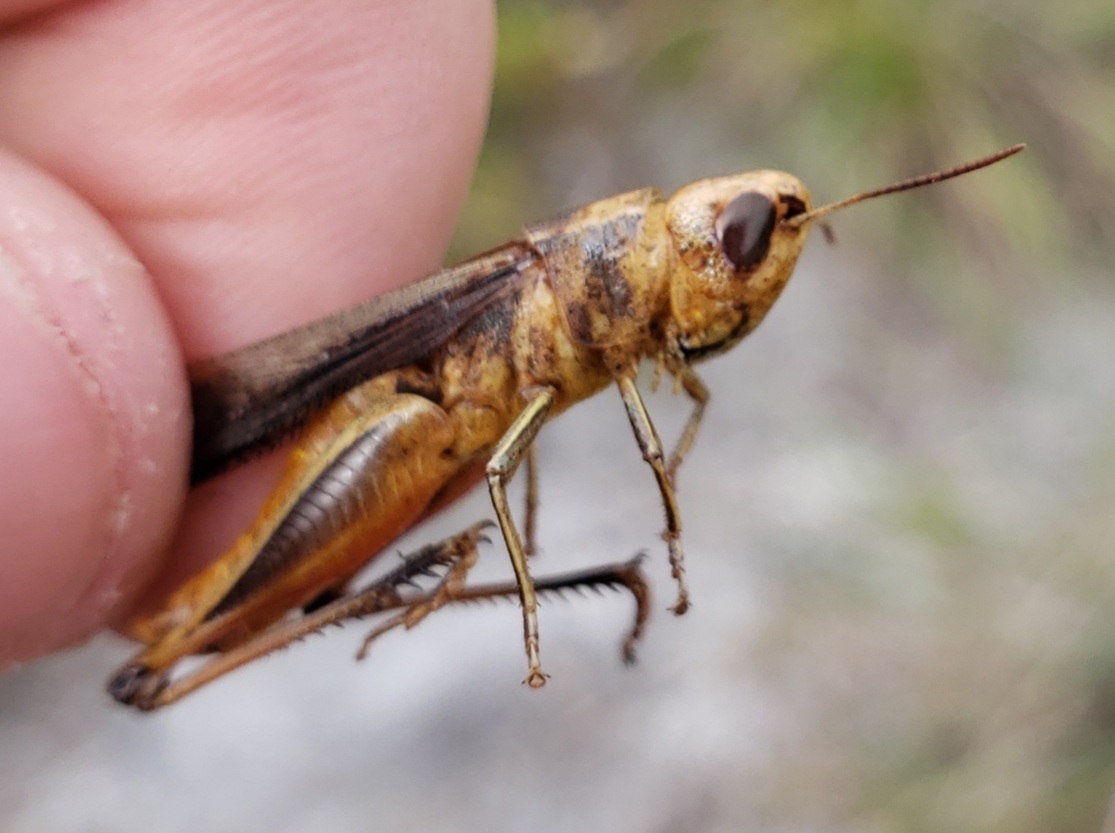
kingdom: Animalia
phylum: Arthropoda
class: Insecta
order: Orthoptera
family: Acrididae
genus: Amblytropidia
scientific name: Amblytropidia mysteca
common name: Brown winter grasshopper
